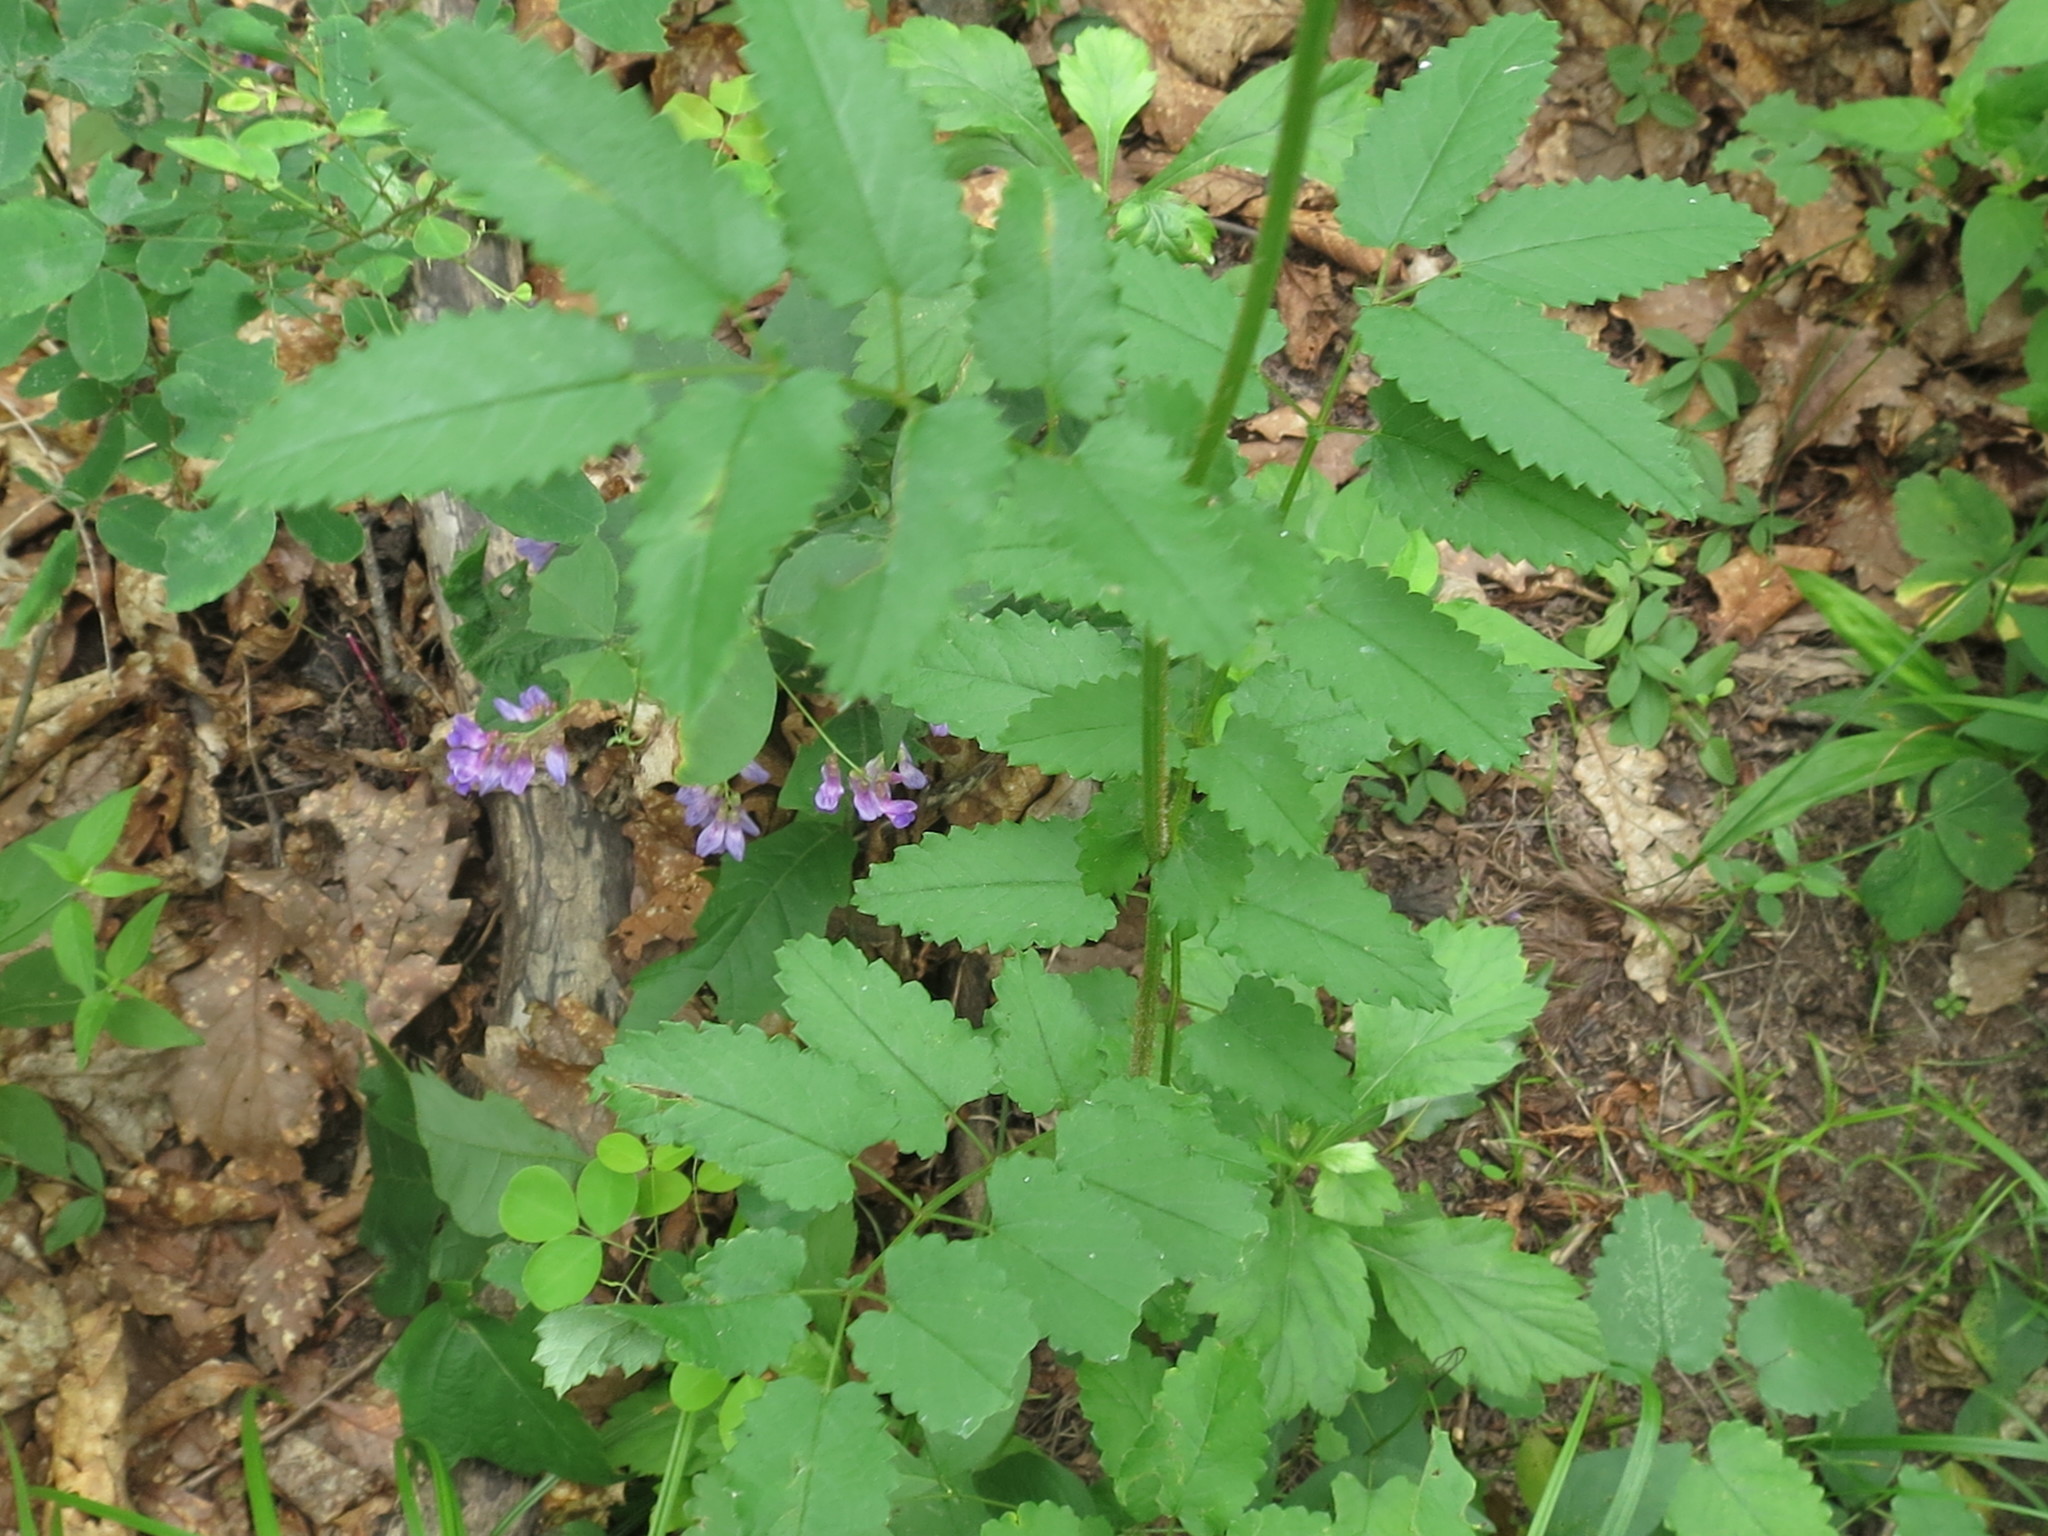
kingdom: Plantae
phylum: Tracheophyta
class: Magnoliopsida
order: Rosales
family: Rosaceae
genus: Sanguisorba
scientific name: Sanguisorba officinalis
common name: Great burnet
